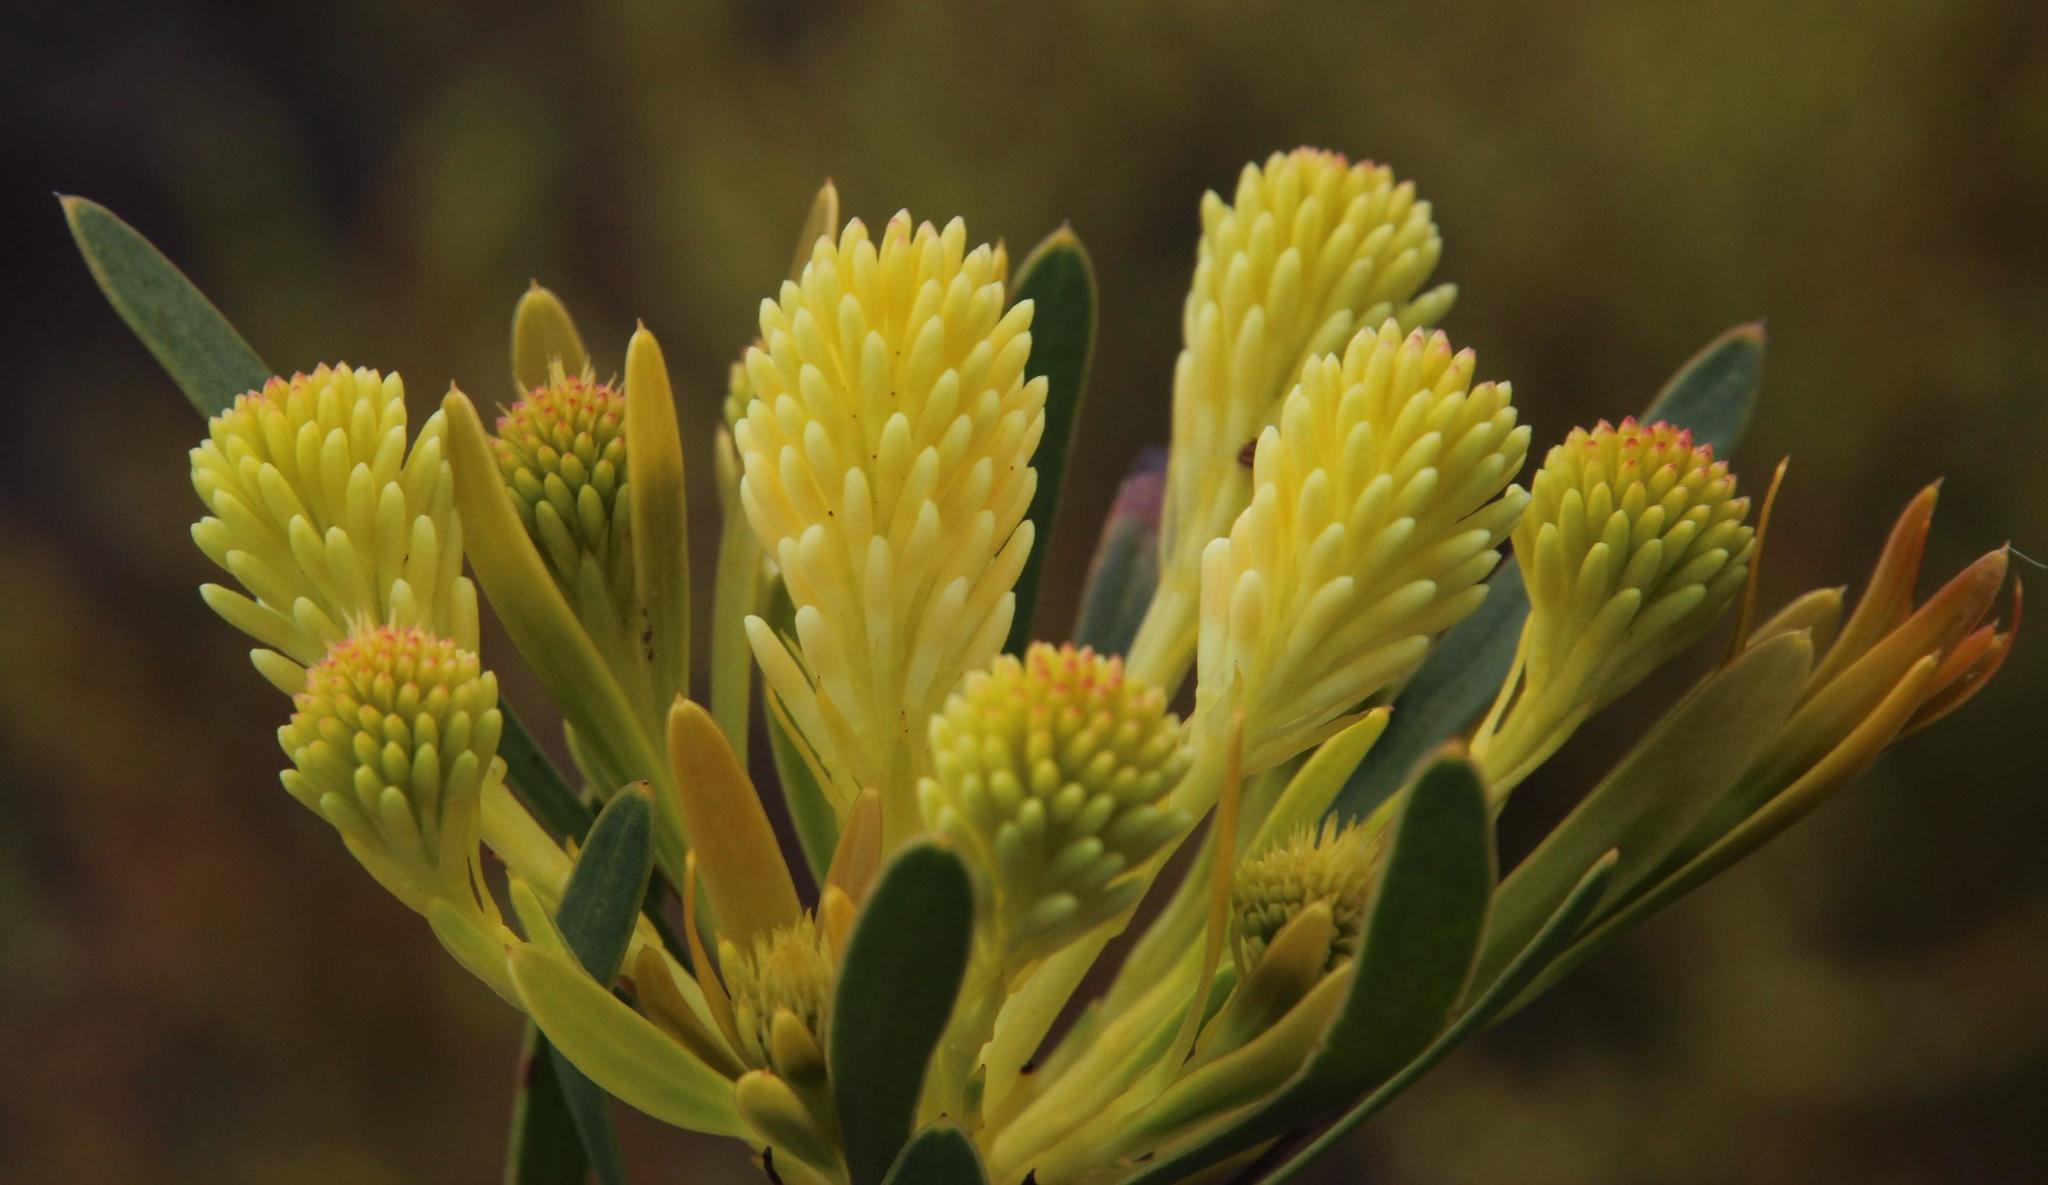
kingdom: Plantae
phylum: Tracheophyta
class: Magnoliopsida
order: Proteales
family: Proteaceae
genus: Aulax
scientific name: Aulax umbellata
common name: Broad-leaf featherbush
